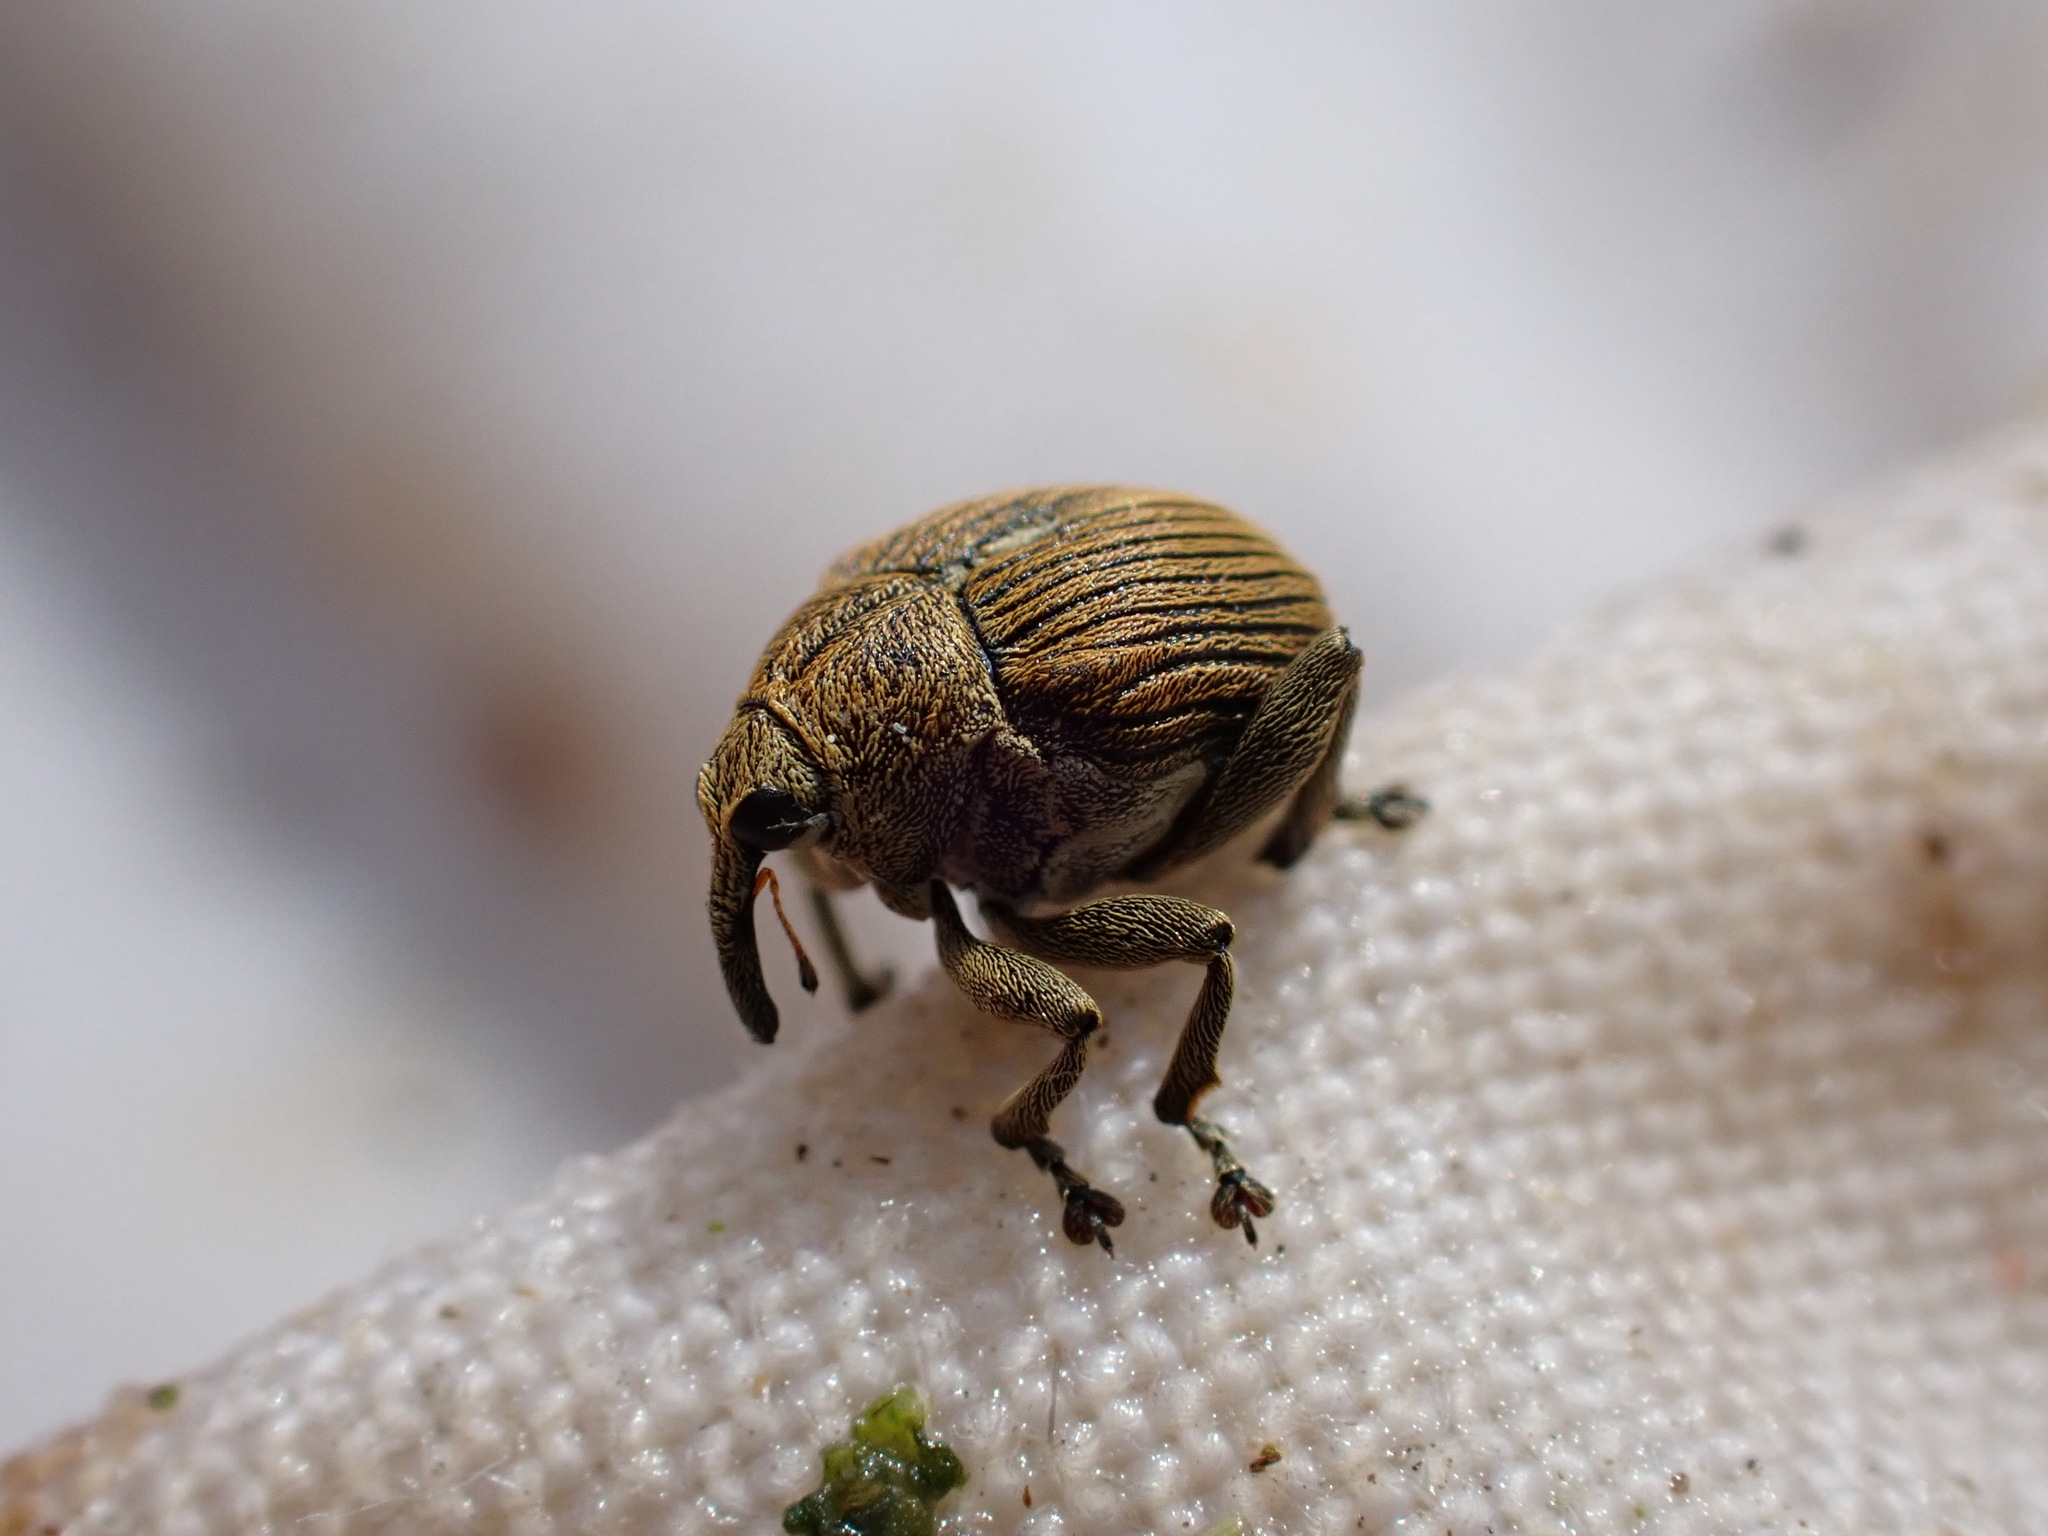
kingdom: Animalia
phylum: Arthropoda
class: Insecta
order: Coleoptera
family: Curculionidae
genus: Mononychus
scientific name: Mononychus punctumalbum
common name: Iris weevil
